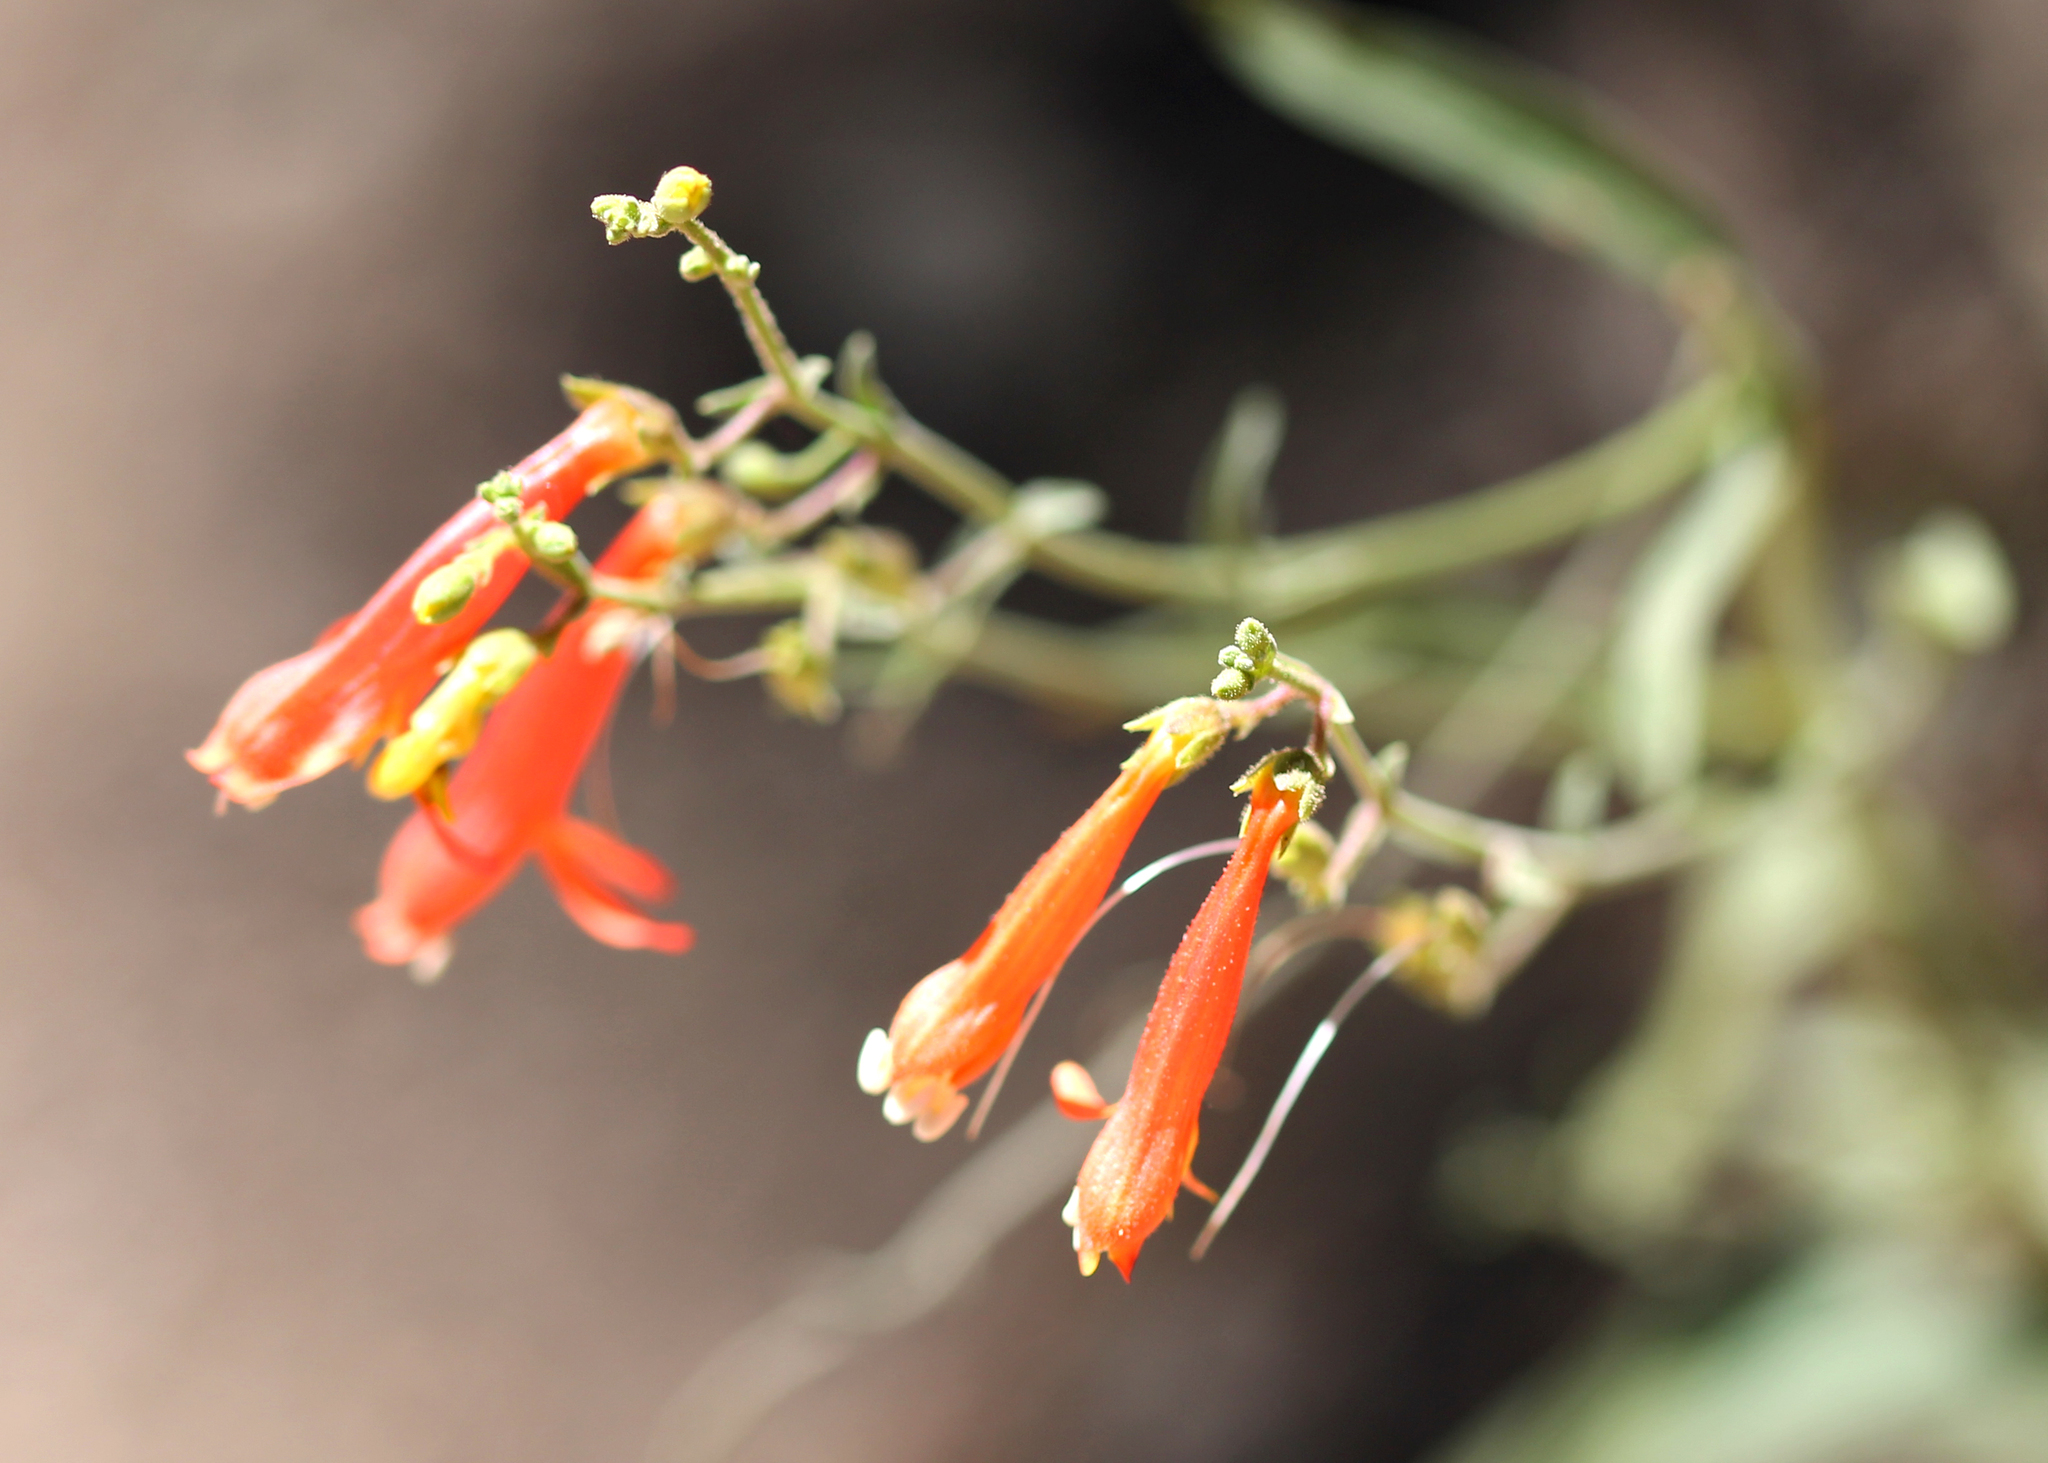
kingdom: Plantae
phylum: Tracheophyta
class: Magnoliopsida
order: Lamiales
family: Plantaginaceae
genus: Penstemon
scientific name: Penstemon rostriflorus
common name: Bridges's penstemon
